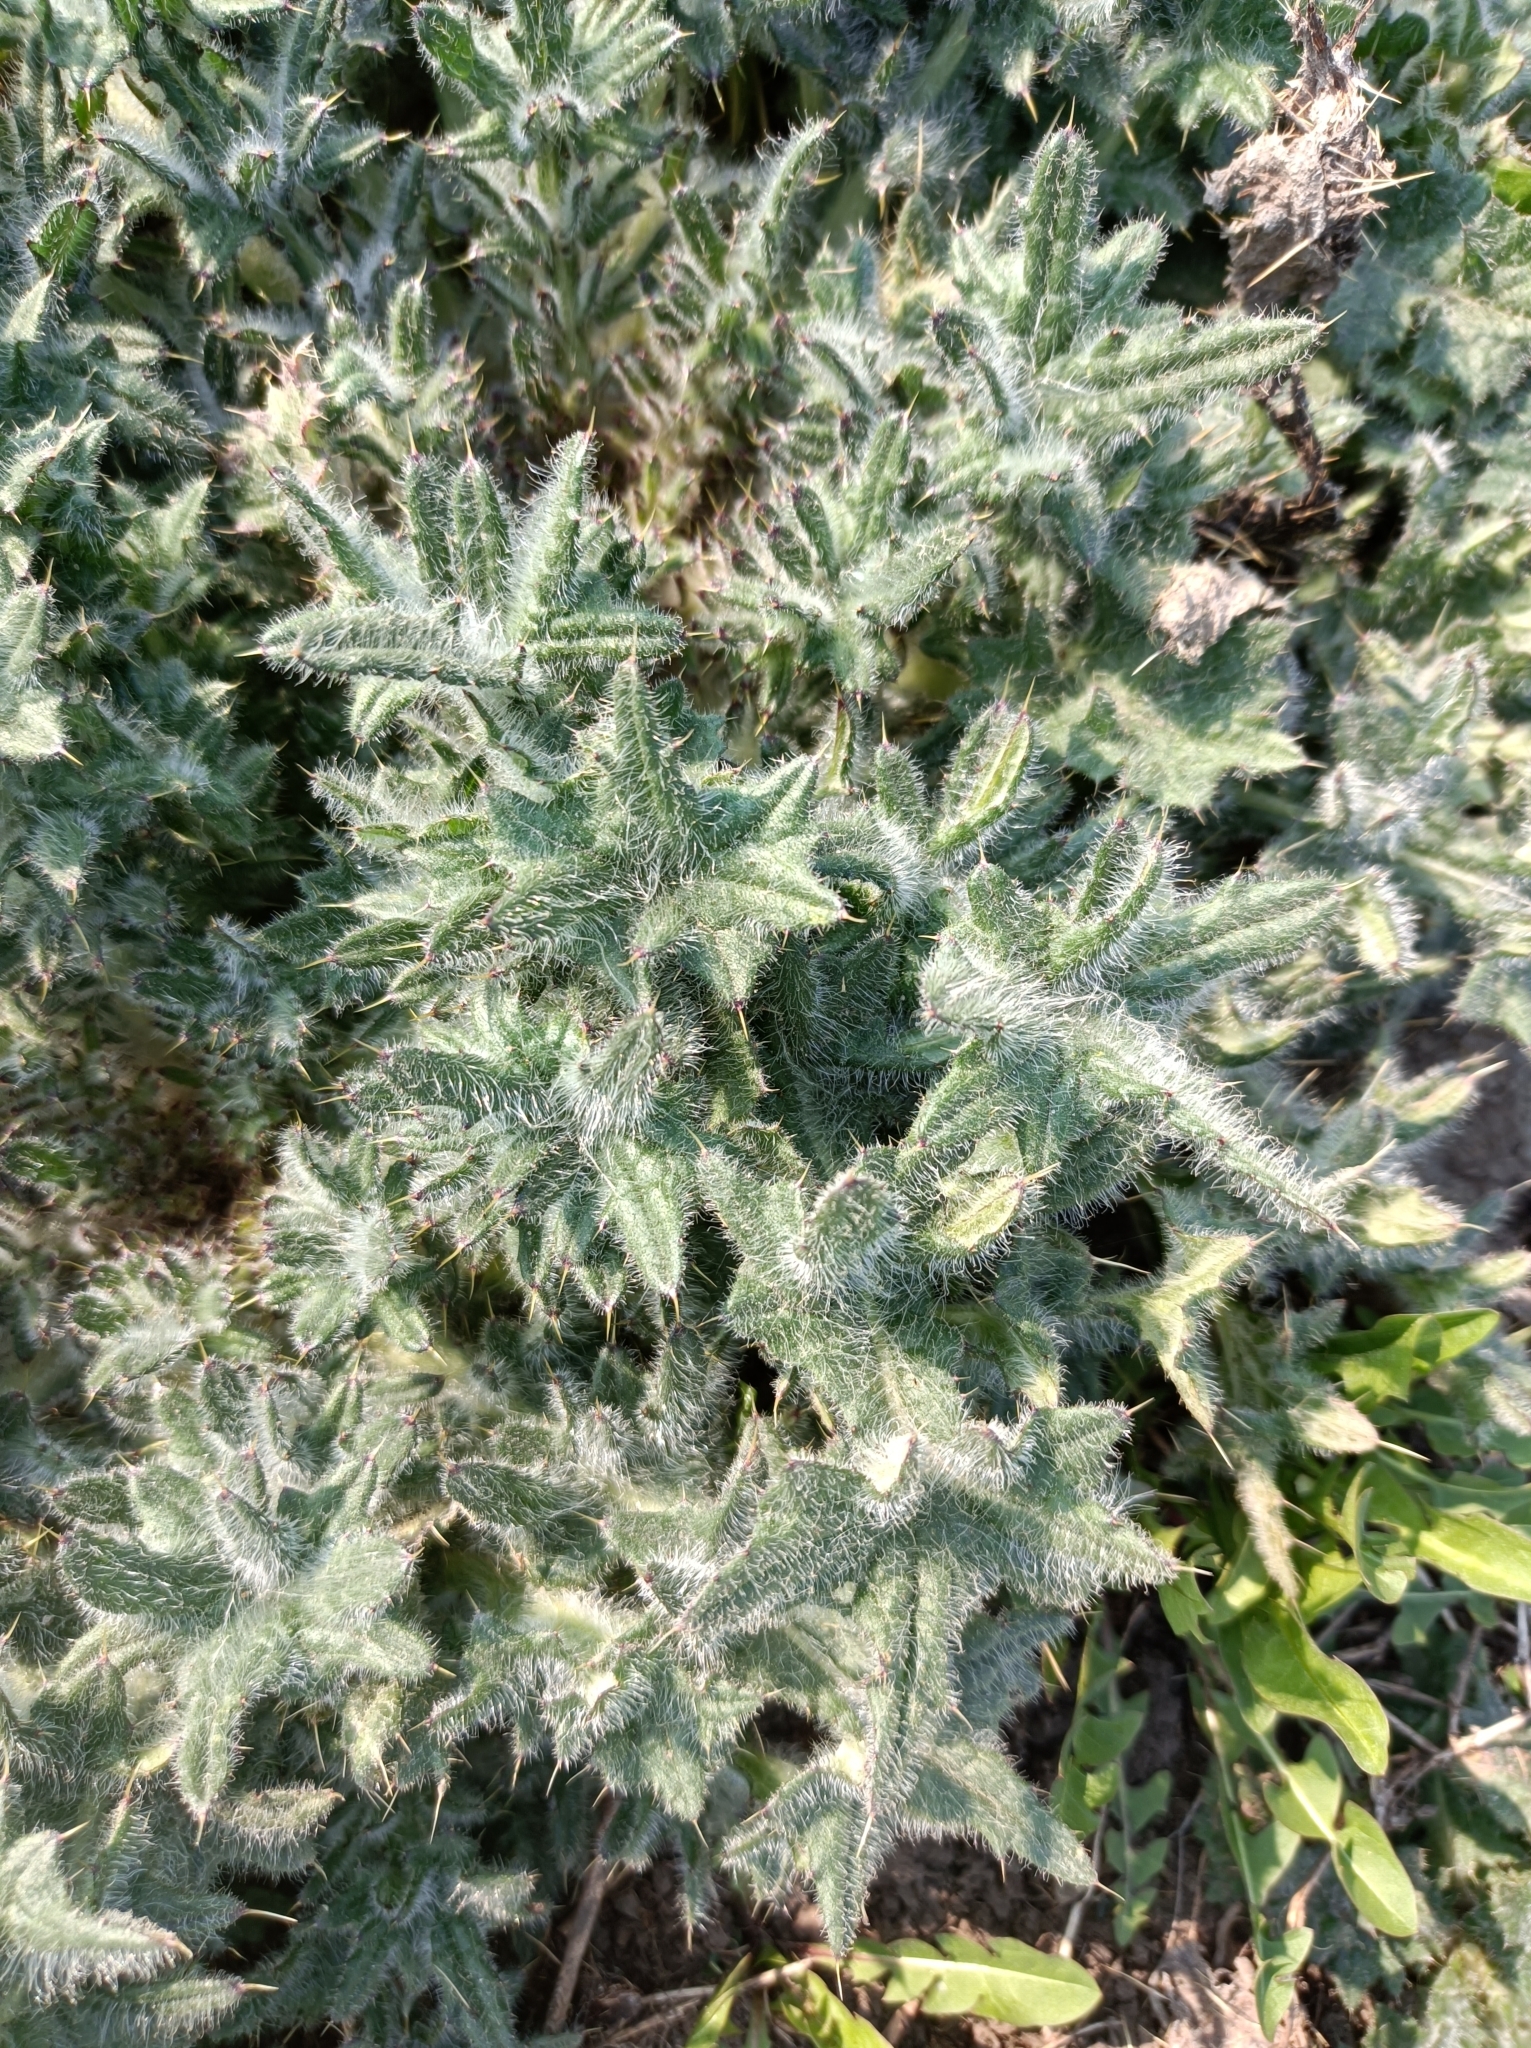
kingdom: Plantae
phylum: Tracheophyta
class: Magnoliopsida
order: Asterales
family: Asteraceae
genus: Cirsium
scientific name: Cirsium vulgare
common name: Bull thistle
